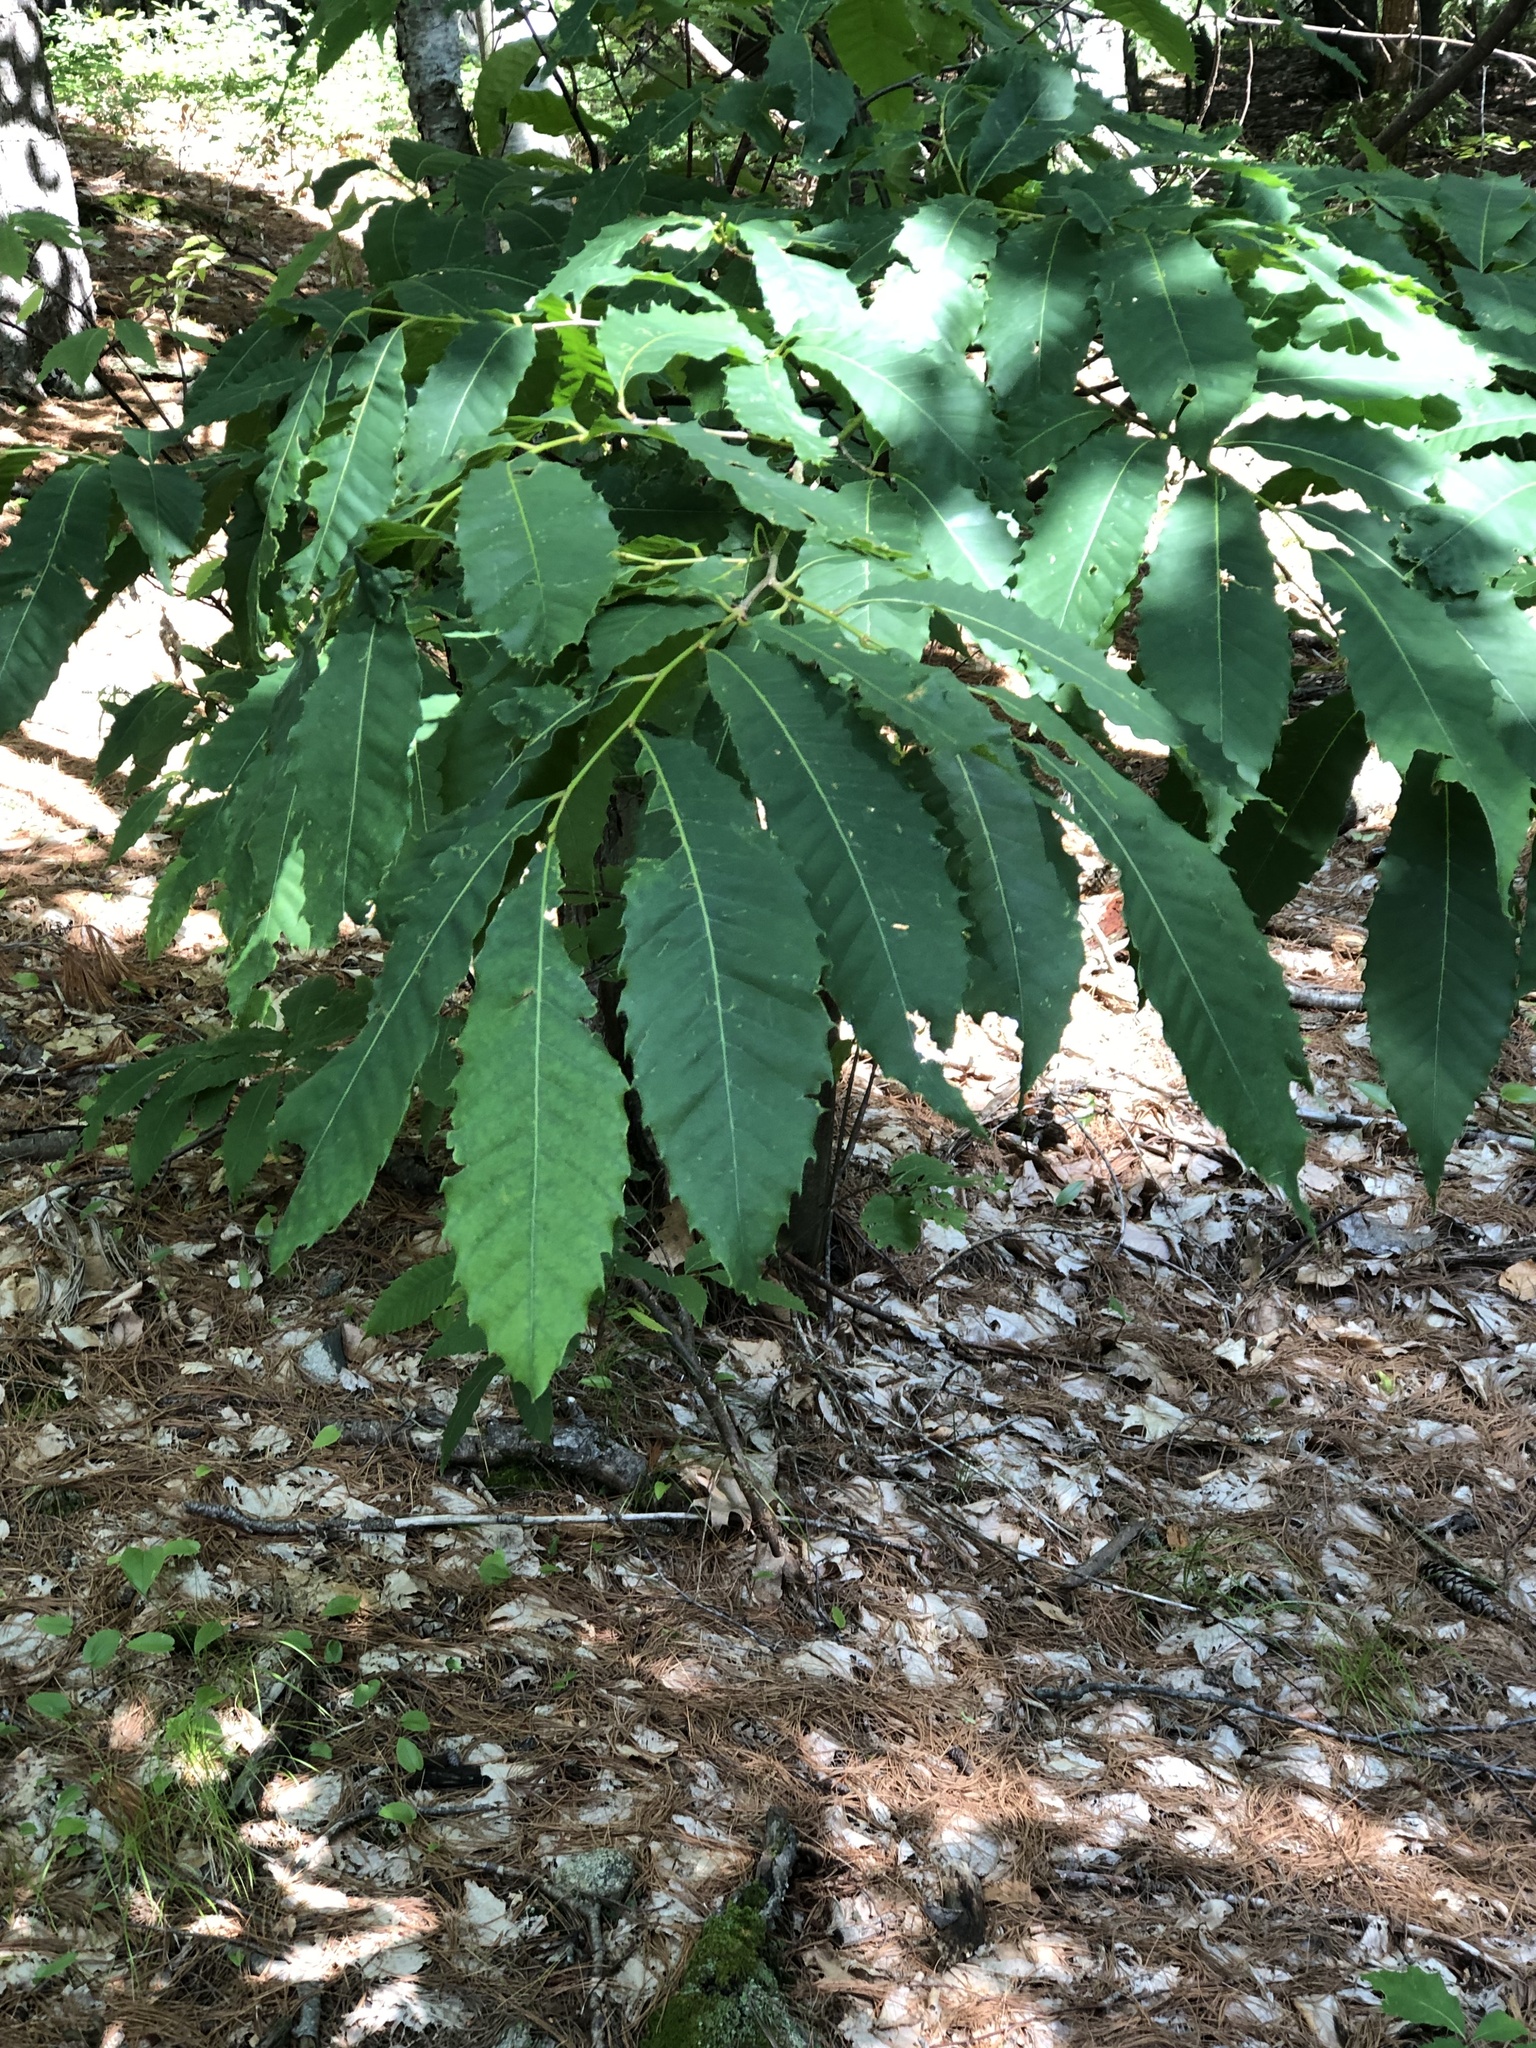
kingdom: Plantae
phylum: Tracheophyta
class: Magnoliopsida
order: Fagales
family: Fagaceae
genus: Castanea
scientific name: Castanea dentata
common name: American chestnut
